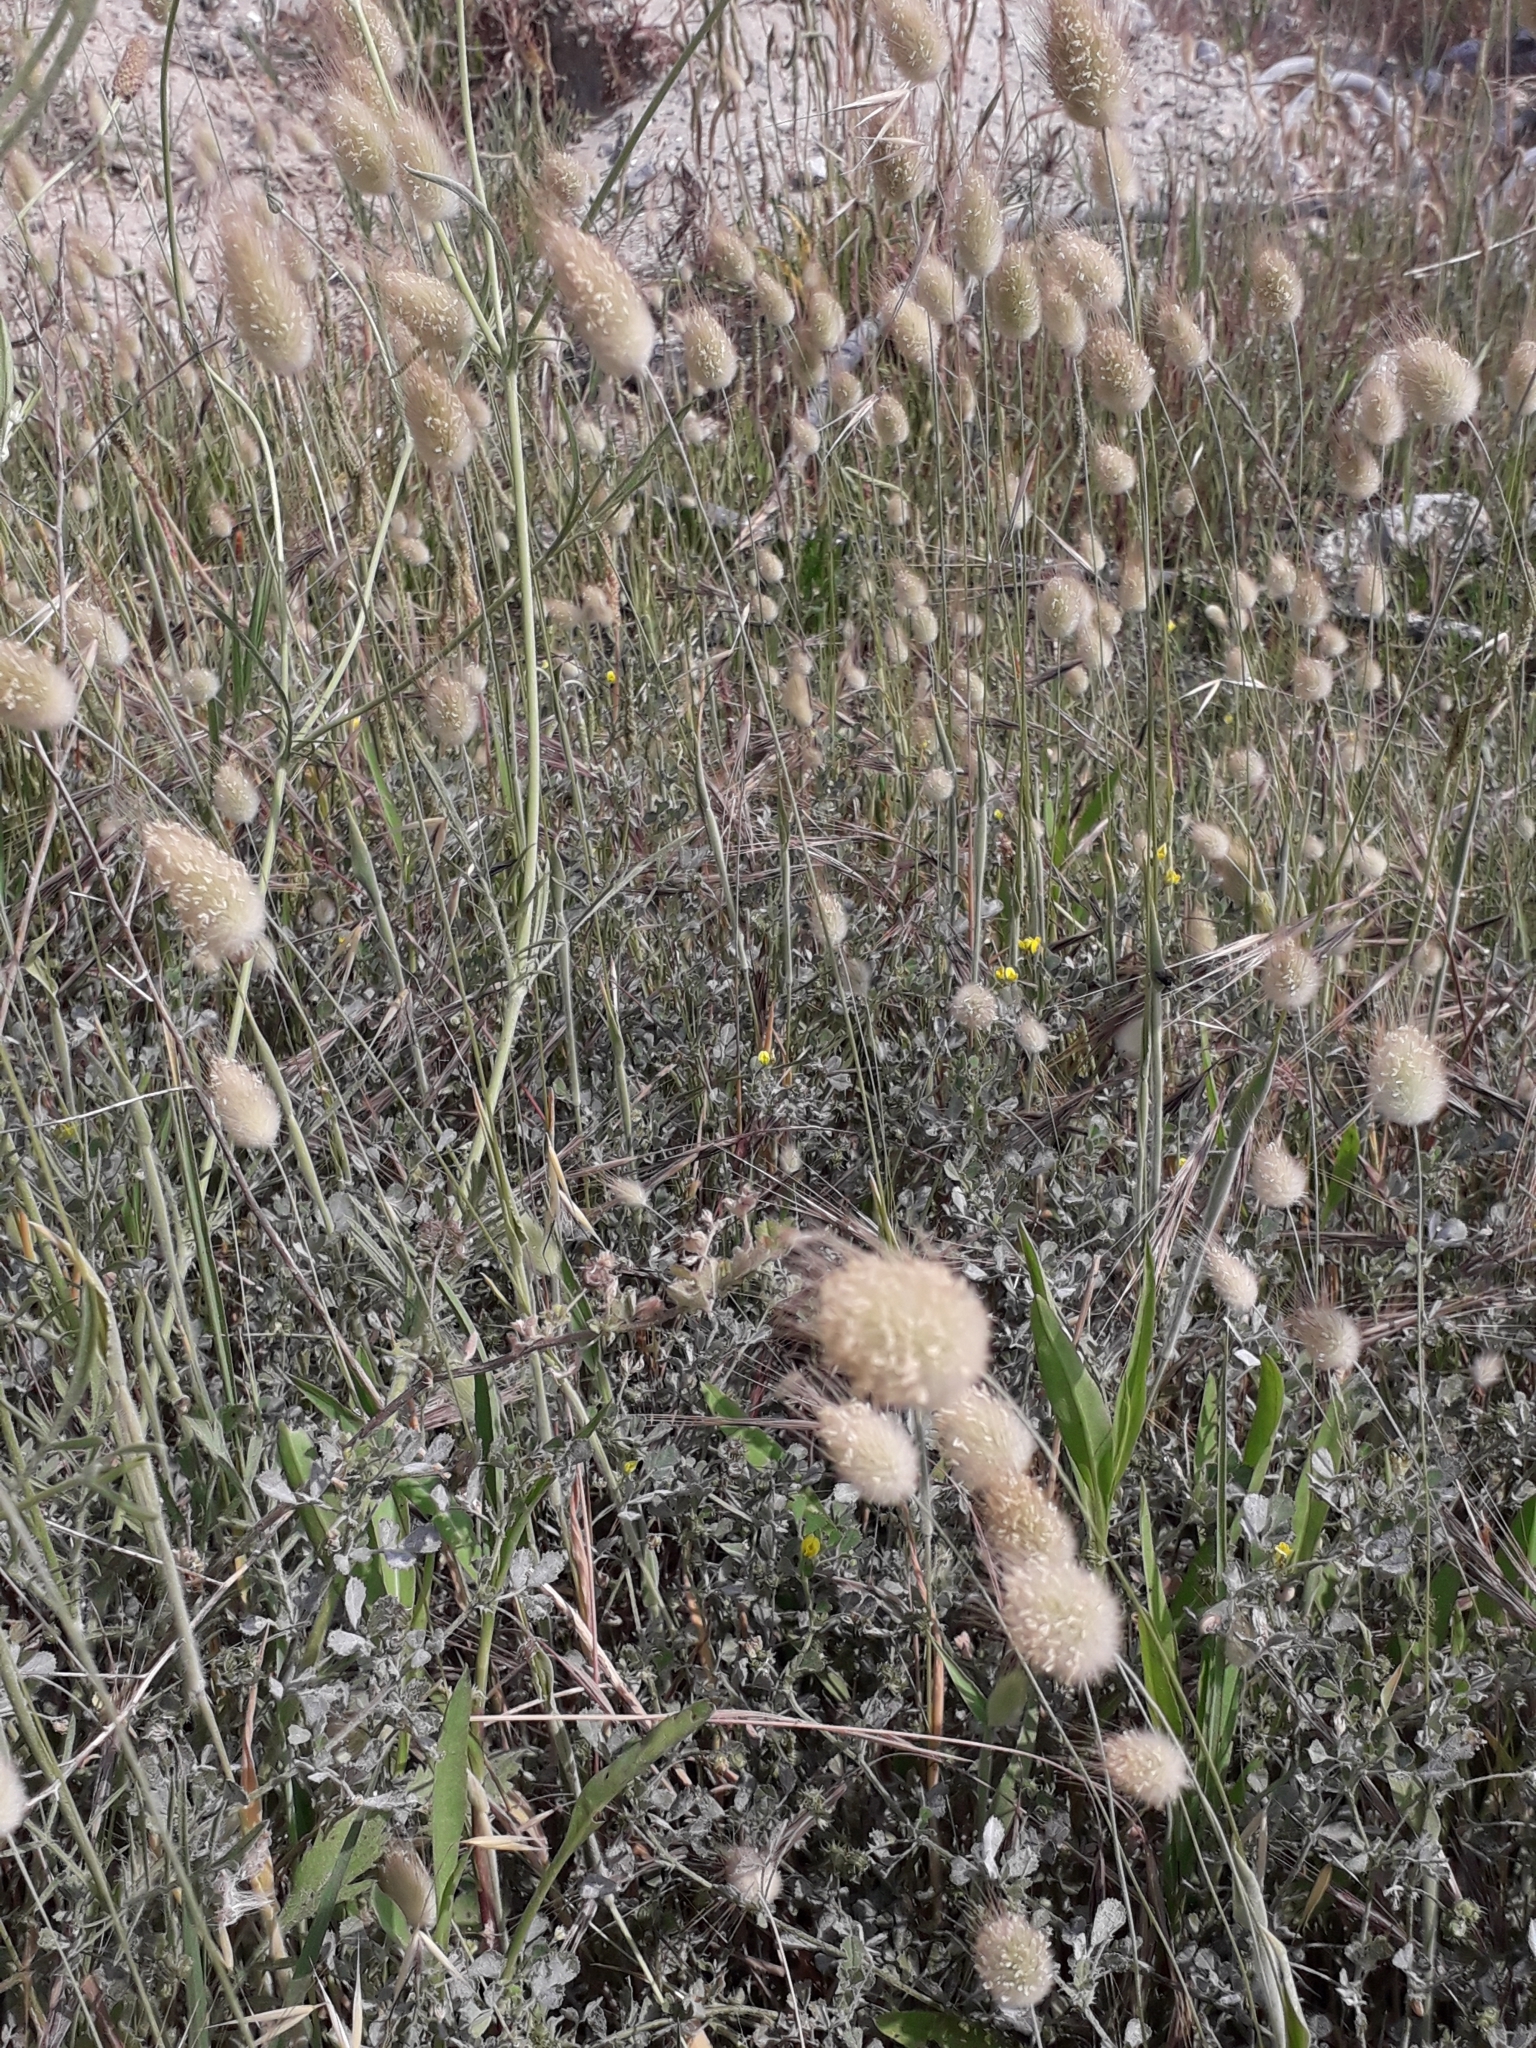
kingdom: Plantae
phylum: Tracheophyta
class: Liliopsida
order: Poales
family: Poaceae
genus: Lagurus
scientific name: Lagurus ovatus
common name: Hare's-tail
